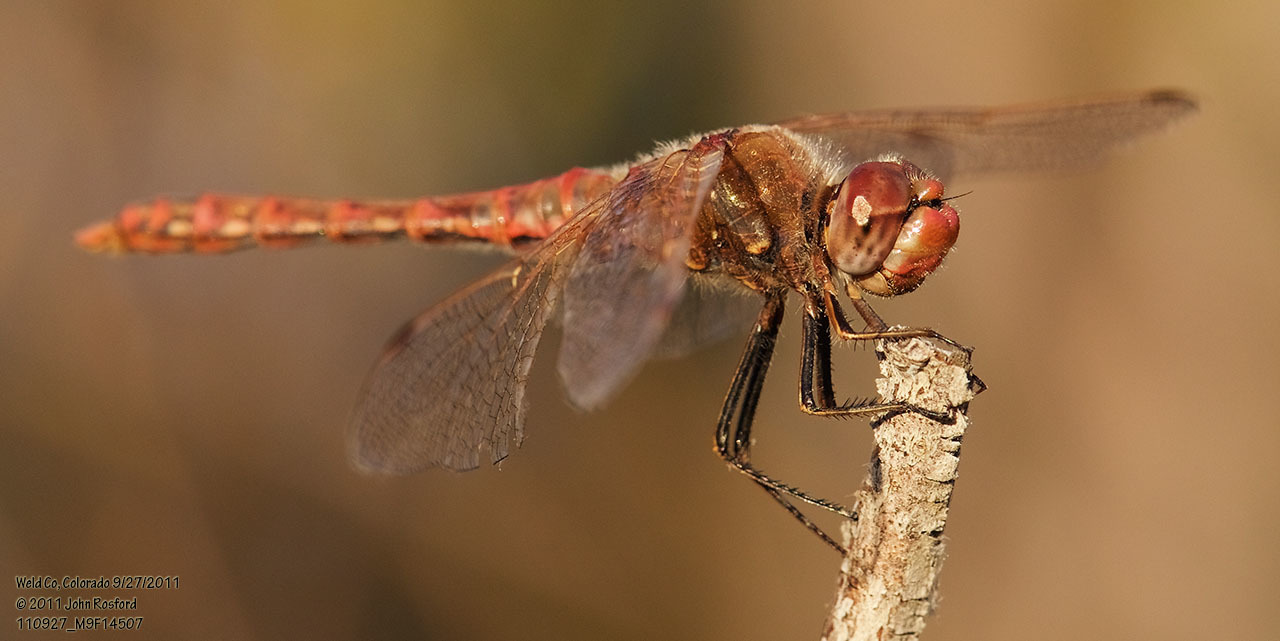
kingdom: Animalia
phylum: Arthropoda
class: Insecta
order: Odonata
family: Libellulidae
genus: Sympetrum
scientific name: Sympetrum corruptum
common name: Variegated meadowhawk
